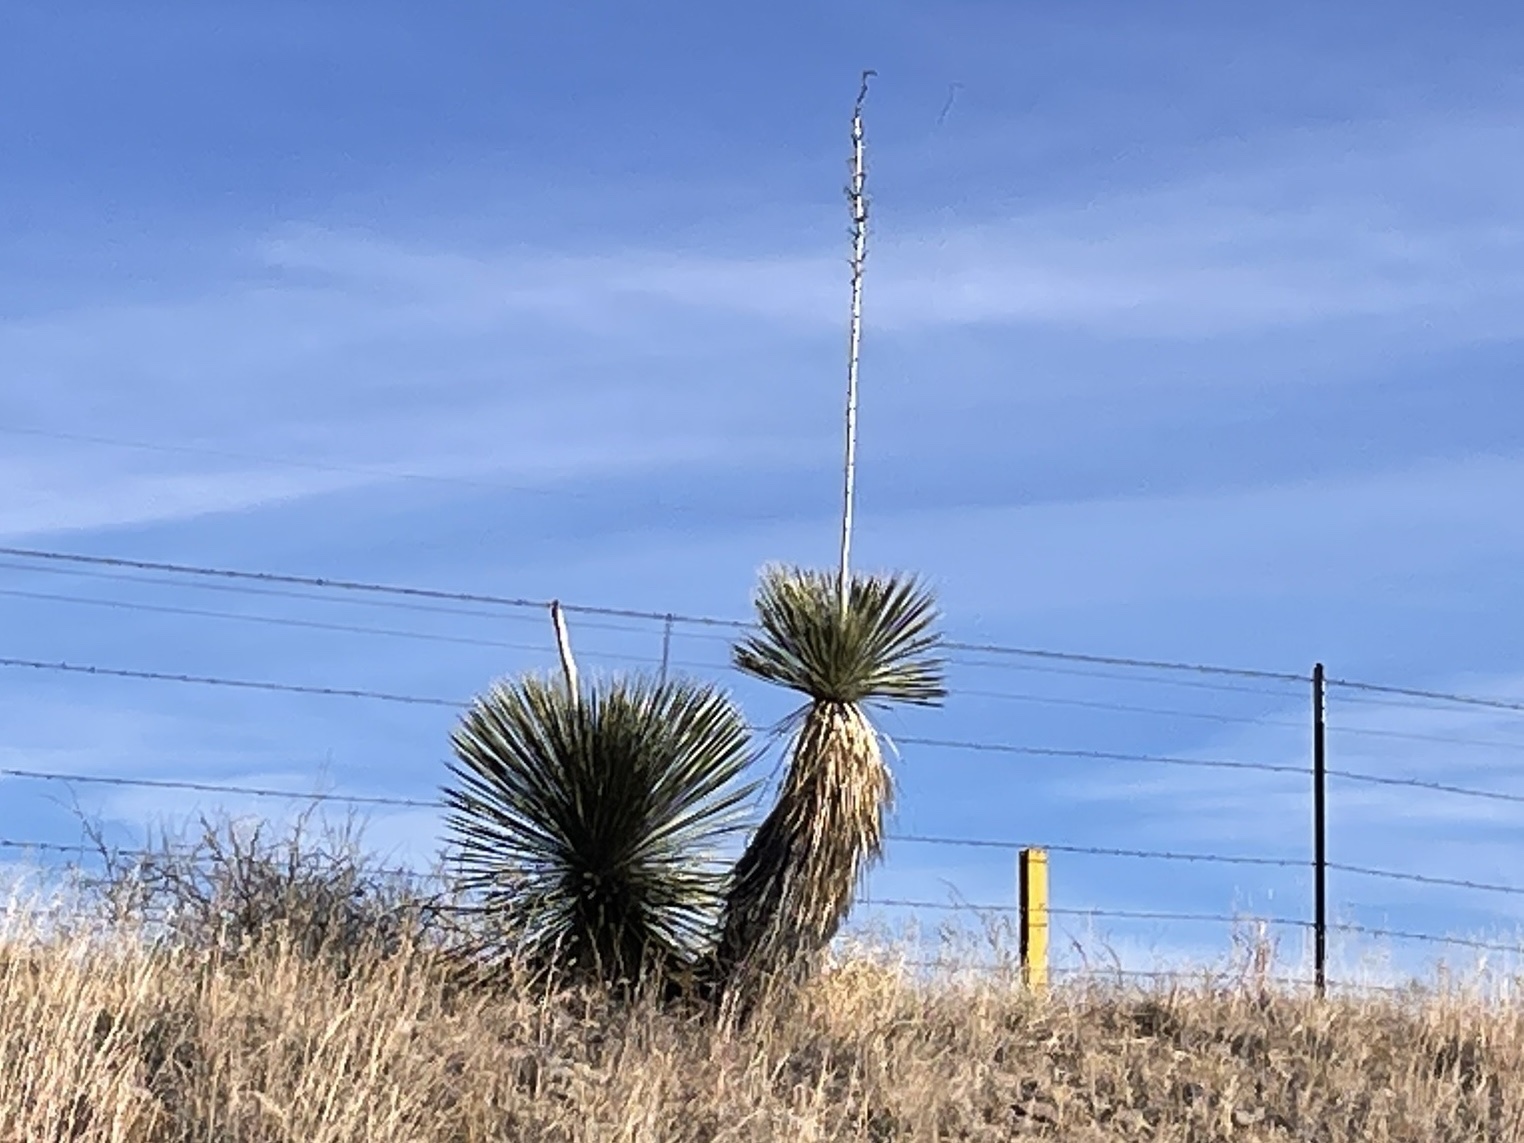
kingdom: Plantae
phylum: Tracheophyta
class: Liliopsida
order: Asparagales
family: Asparagaceae
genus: Yucca
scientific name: Yucca elata
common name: Palmella
